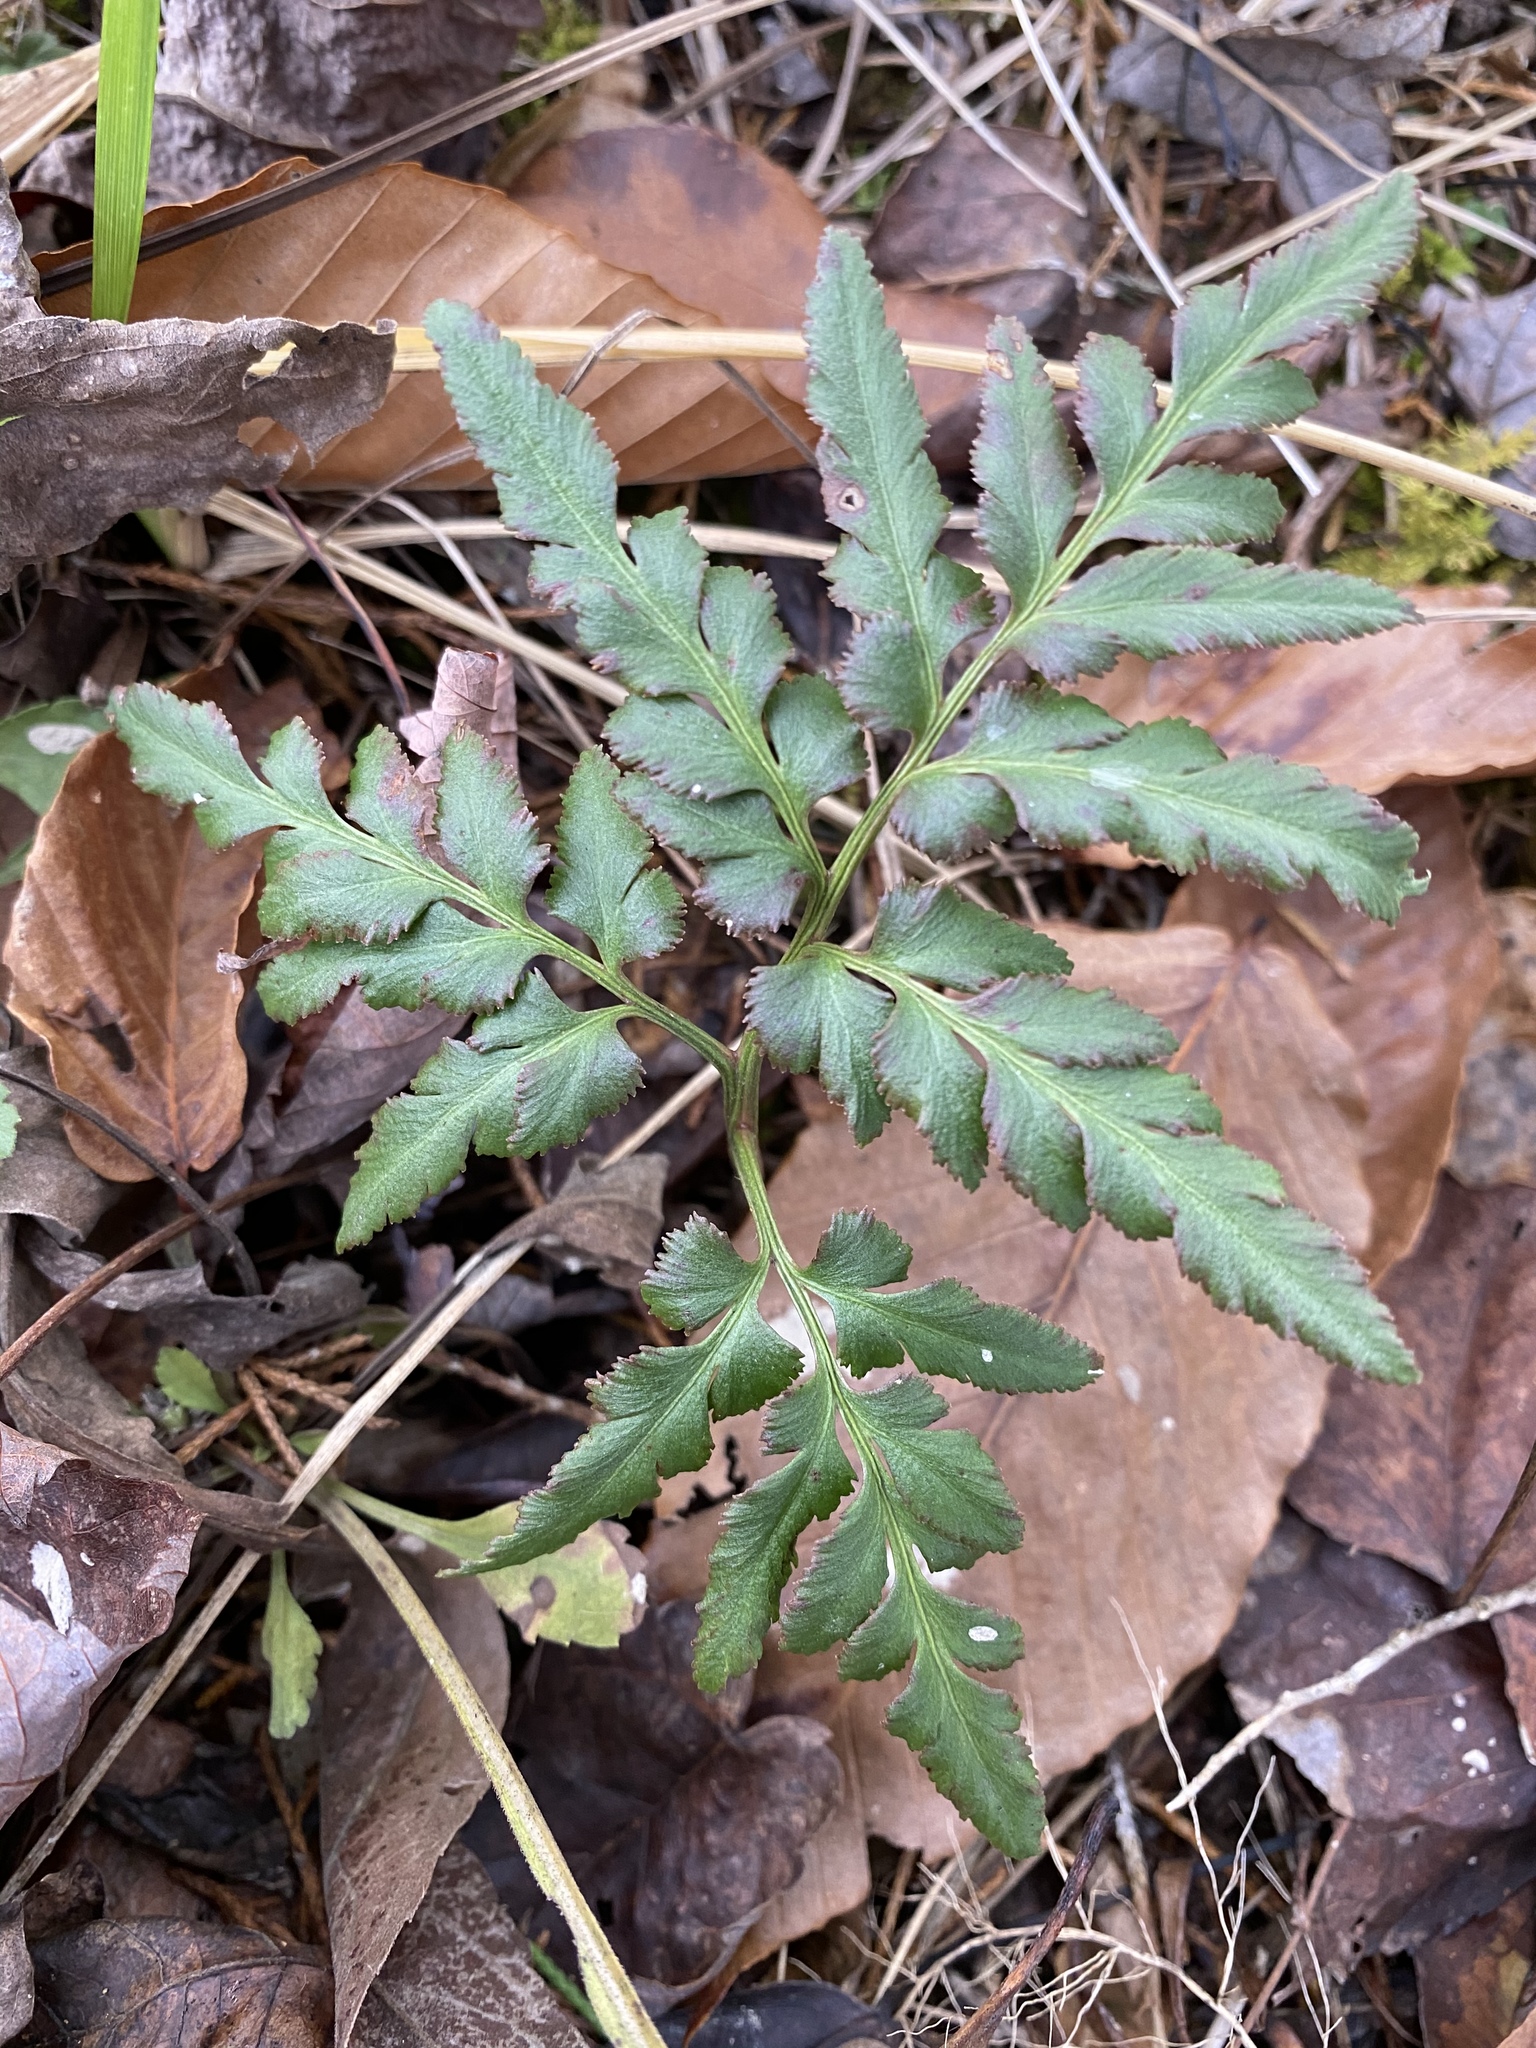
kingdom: Plantae
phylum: Tracheophyta
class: Polypodiopsida
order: Ophioglossales
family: Ophioglossaceae
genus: Sceptridium
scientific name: Sceptridium dissectum
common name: Cut-leaved grapefern
